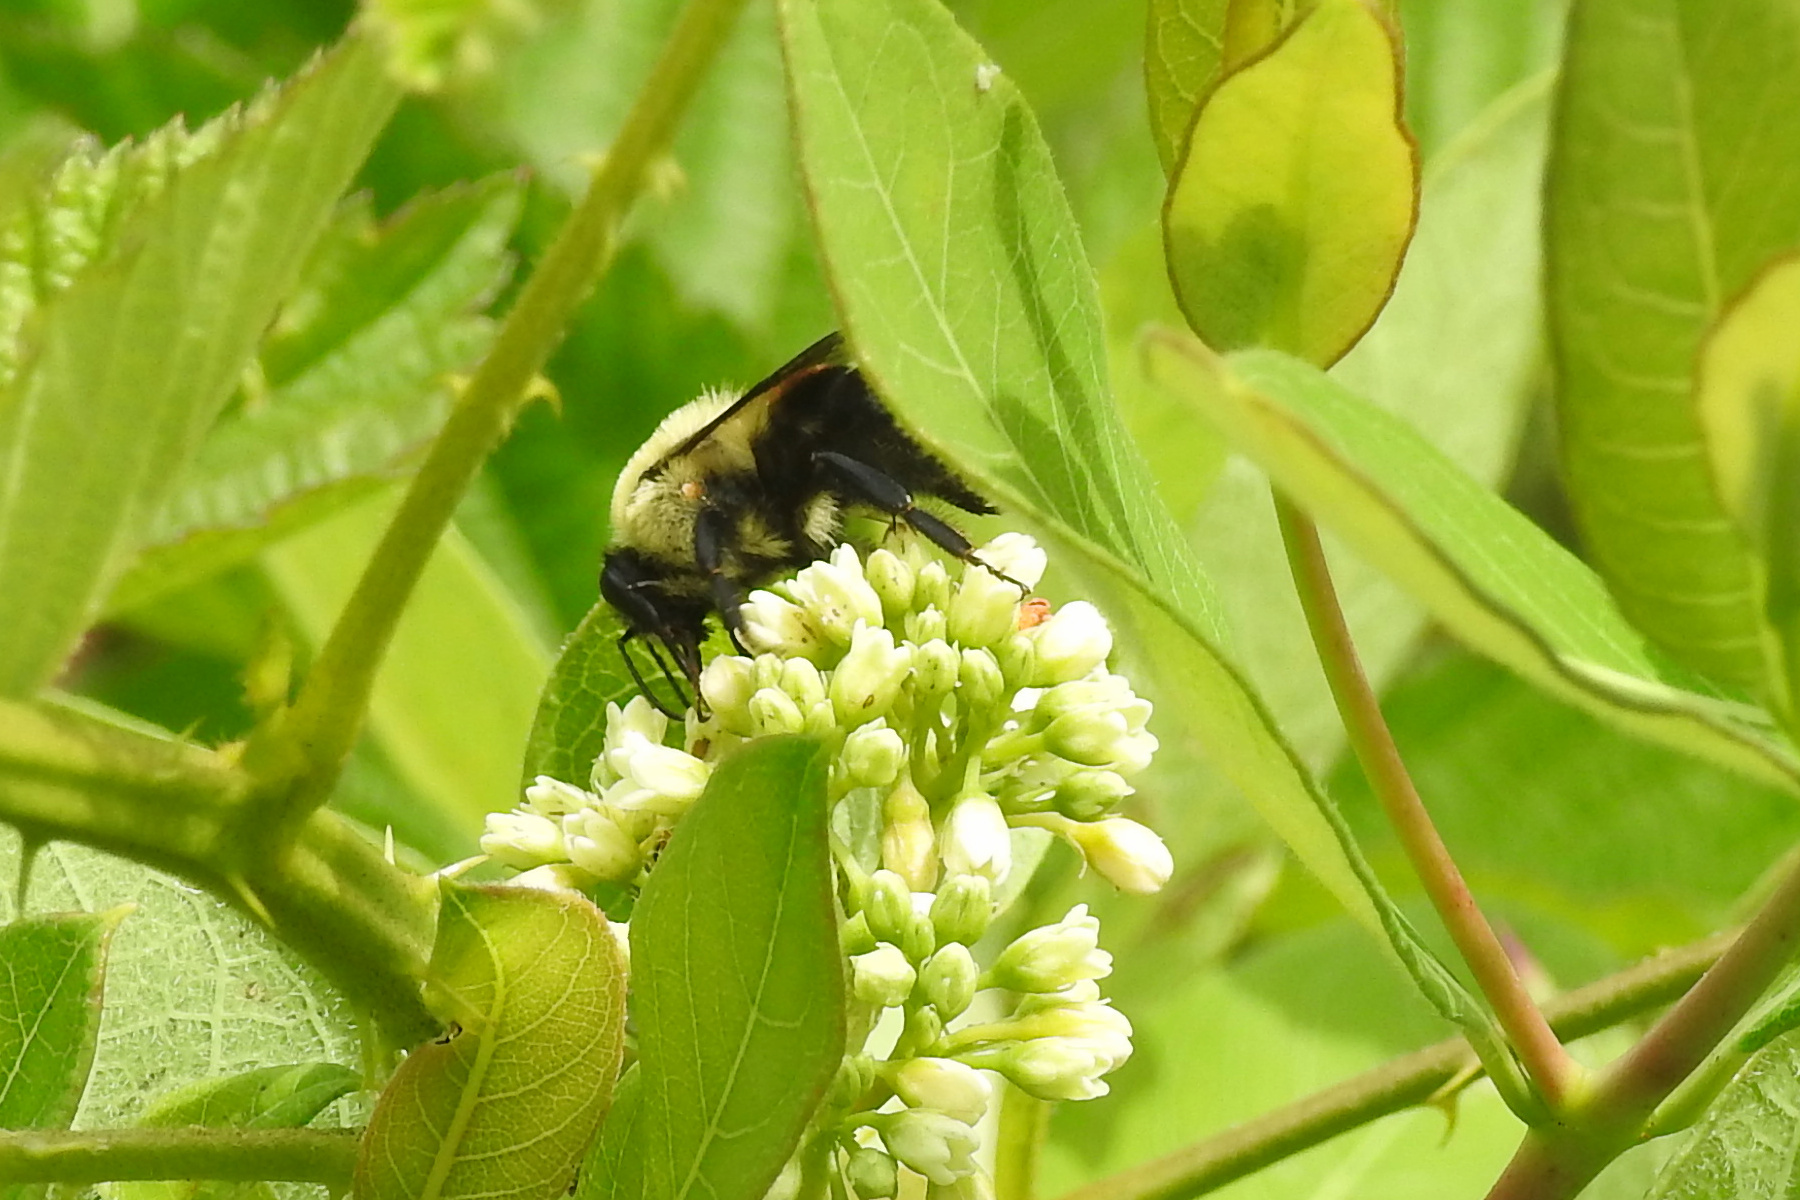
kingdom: Animalia
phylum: Arthropoda
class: Insecta
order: Hymenoptera
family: Apidae
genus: Bombus
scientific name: Bombus griseocollis
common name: Brown-belted bumble bee
